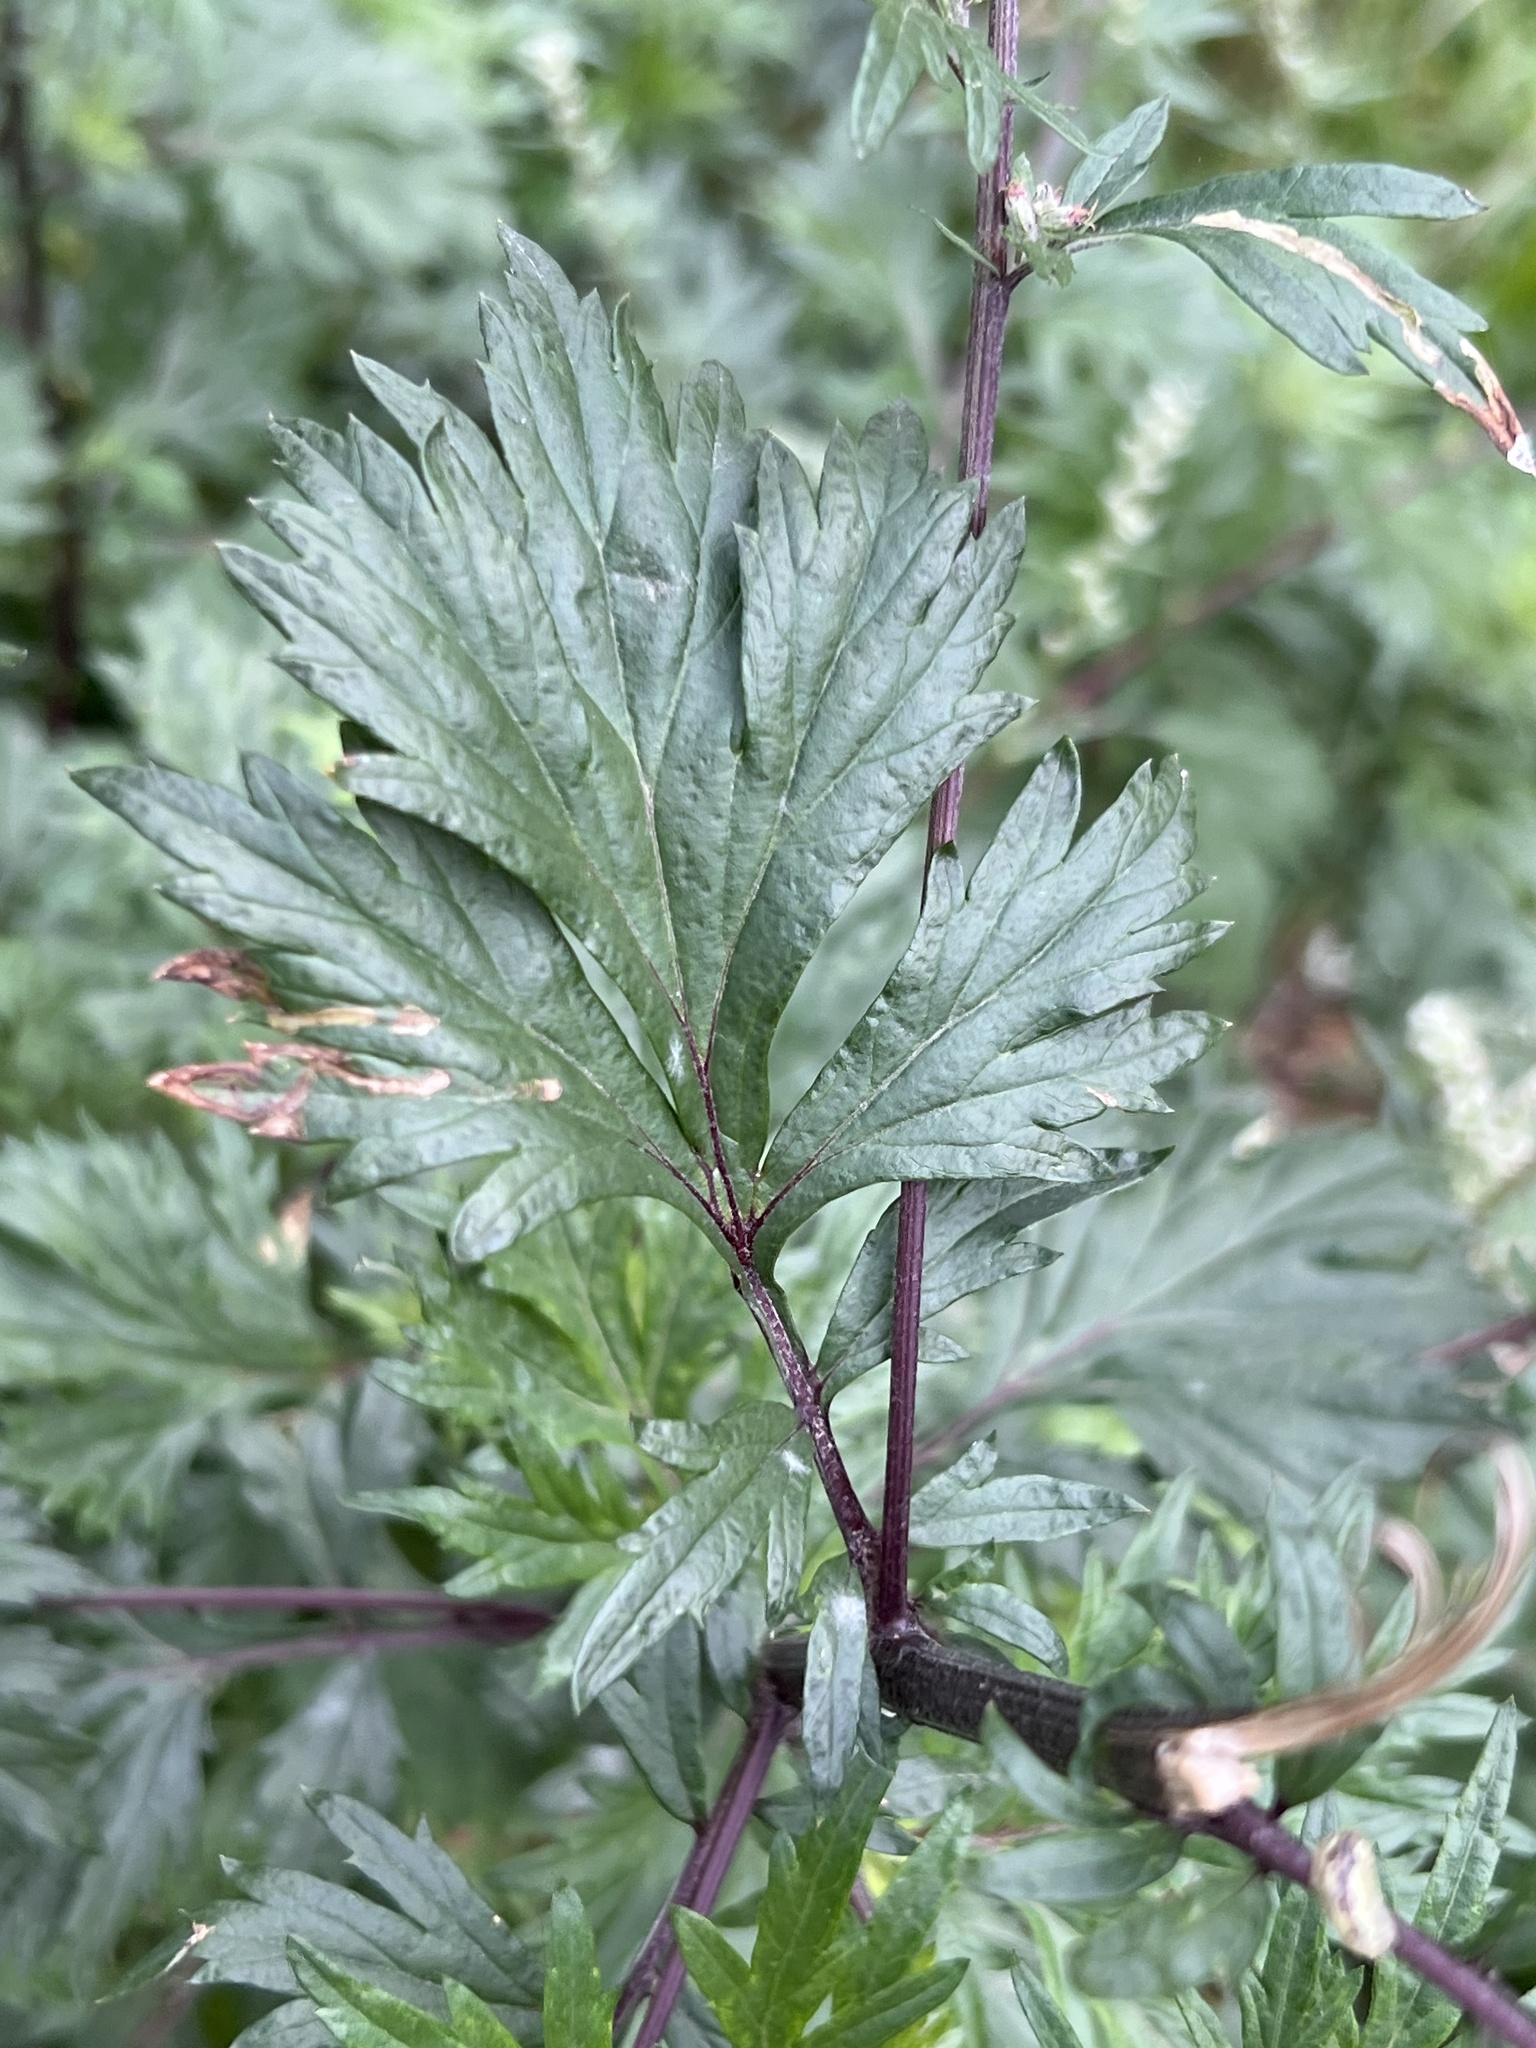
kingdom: Plantae
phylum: Tracheophyta
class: Magnoliopsida
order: Asterales
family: Asteraceae
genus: Artemisia
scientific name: Artemisia vulgaris
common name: Mugwort
